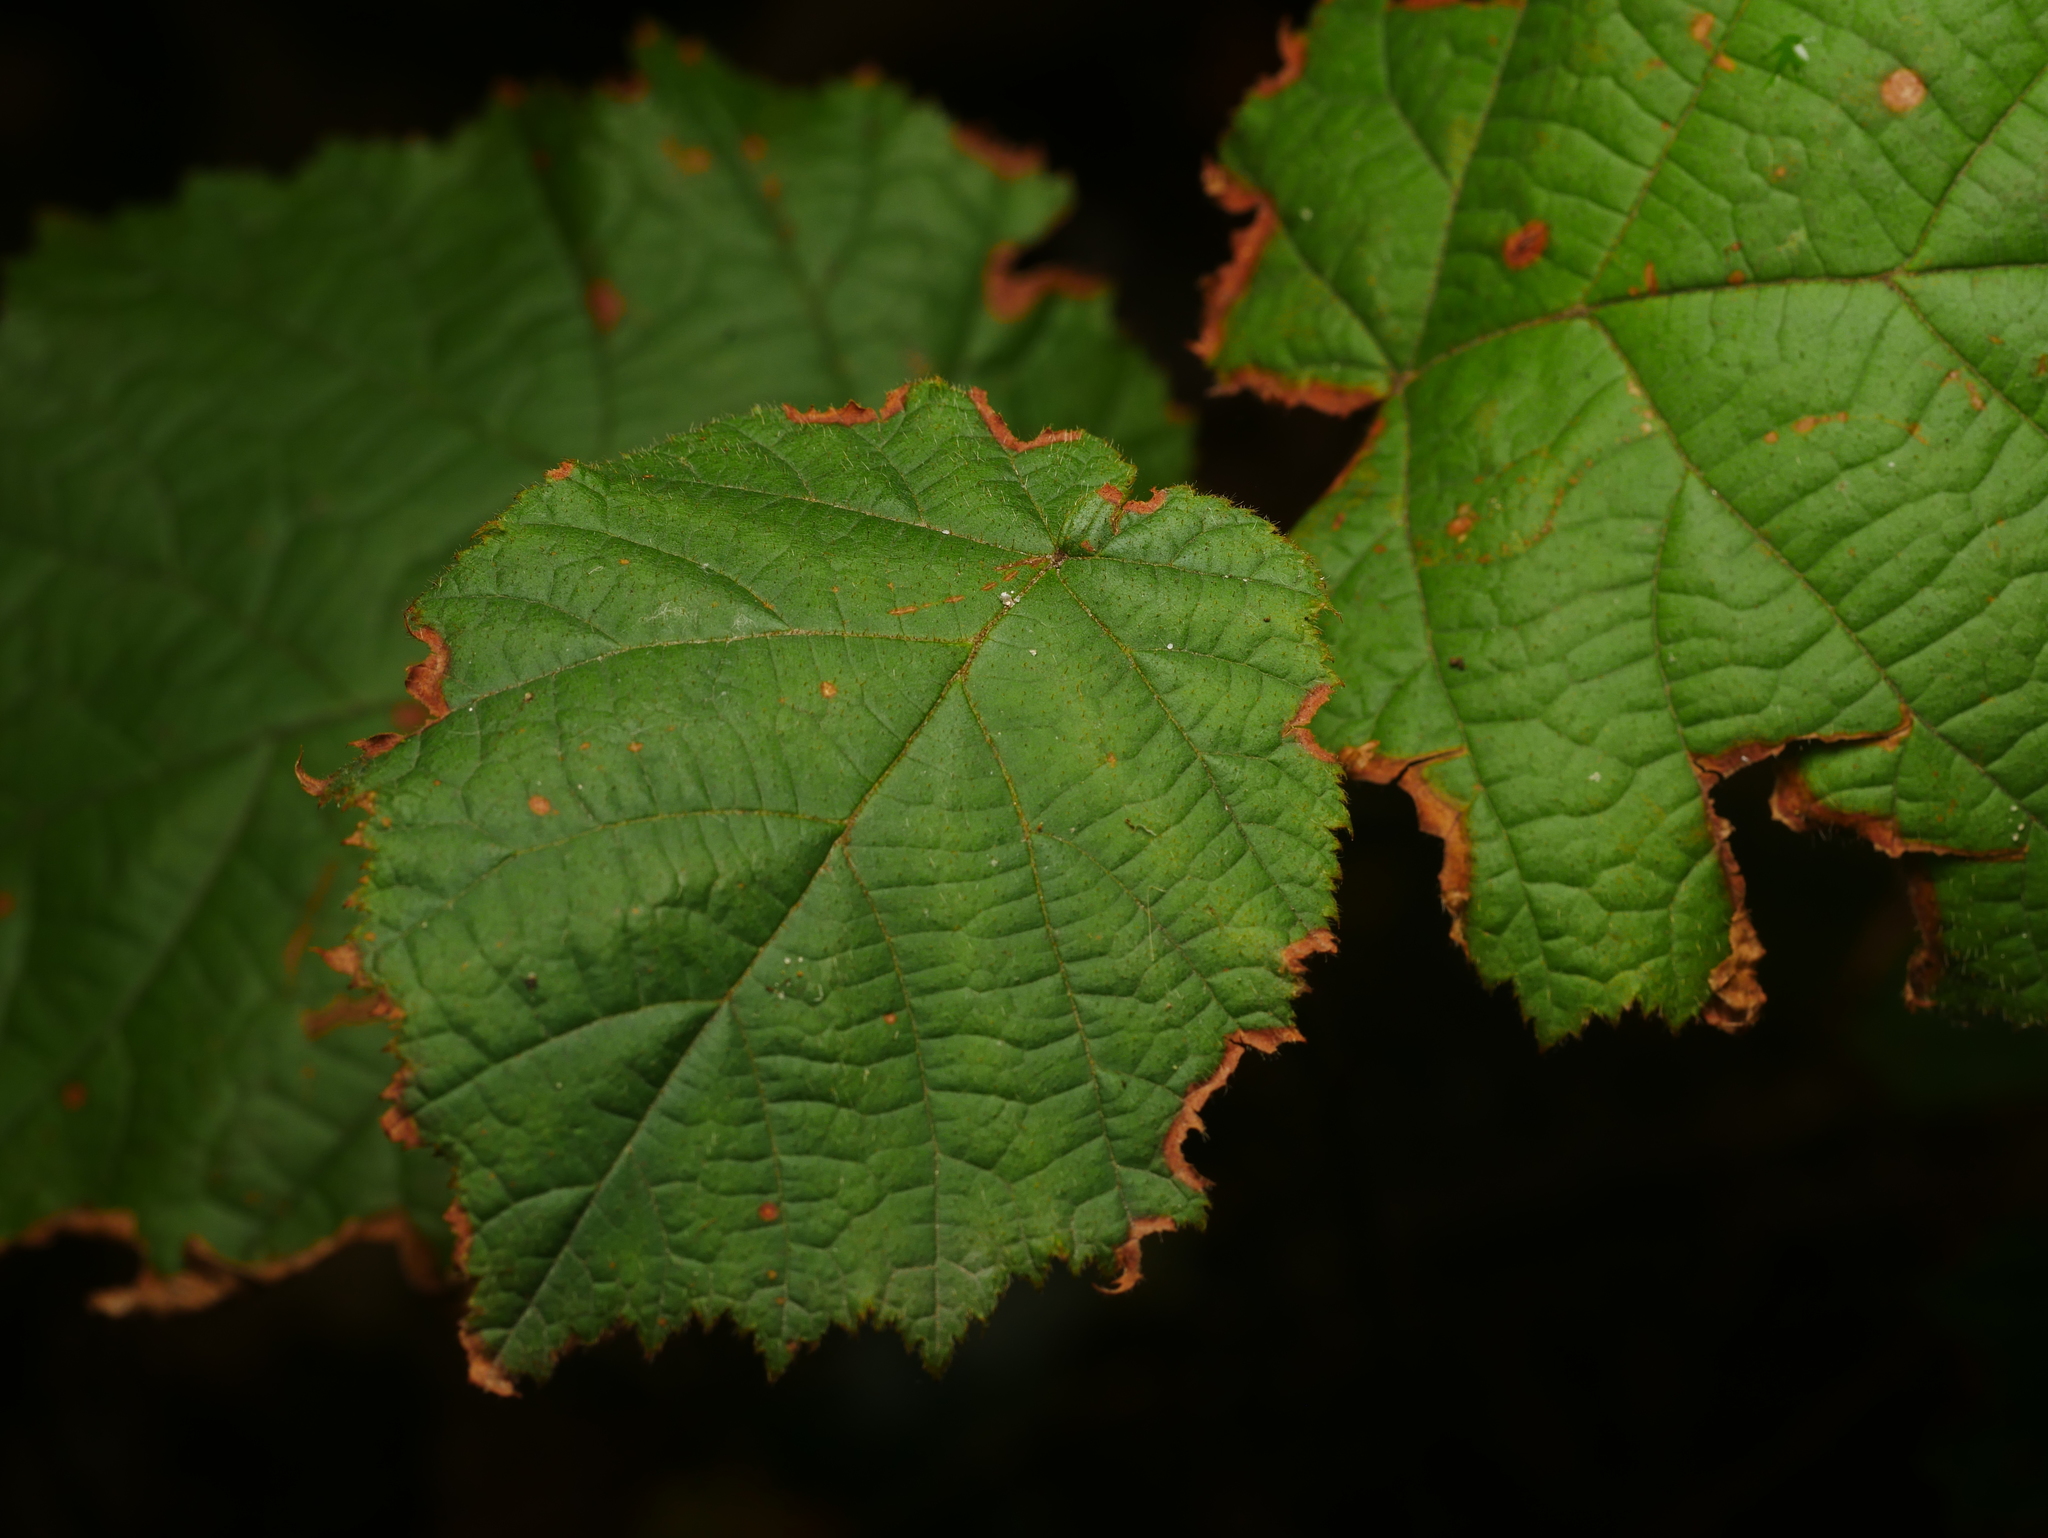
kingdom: Plantae
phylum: Tracheophyta
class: Magnoliopsida
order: Fagales
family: Betulaceae
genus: Corylus
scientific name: Corylus avellana
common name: European hazel
